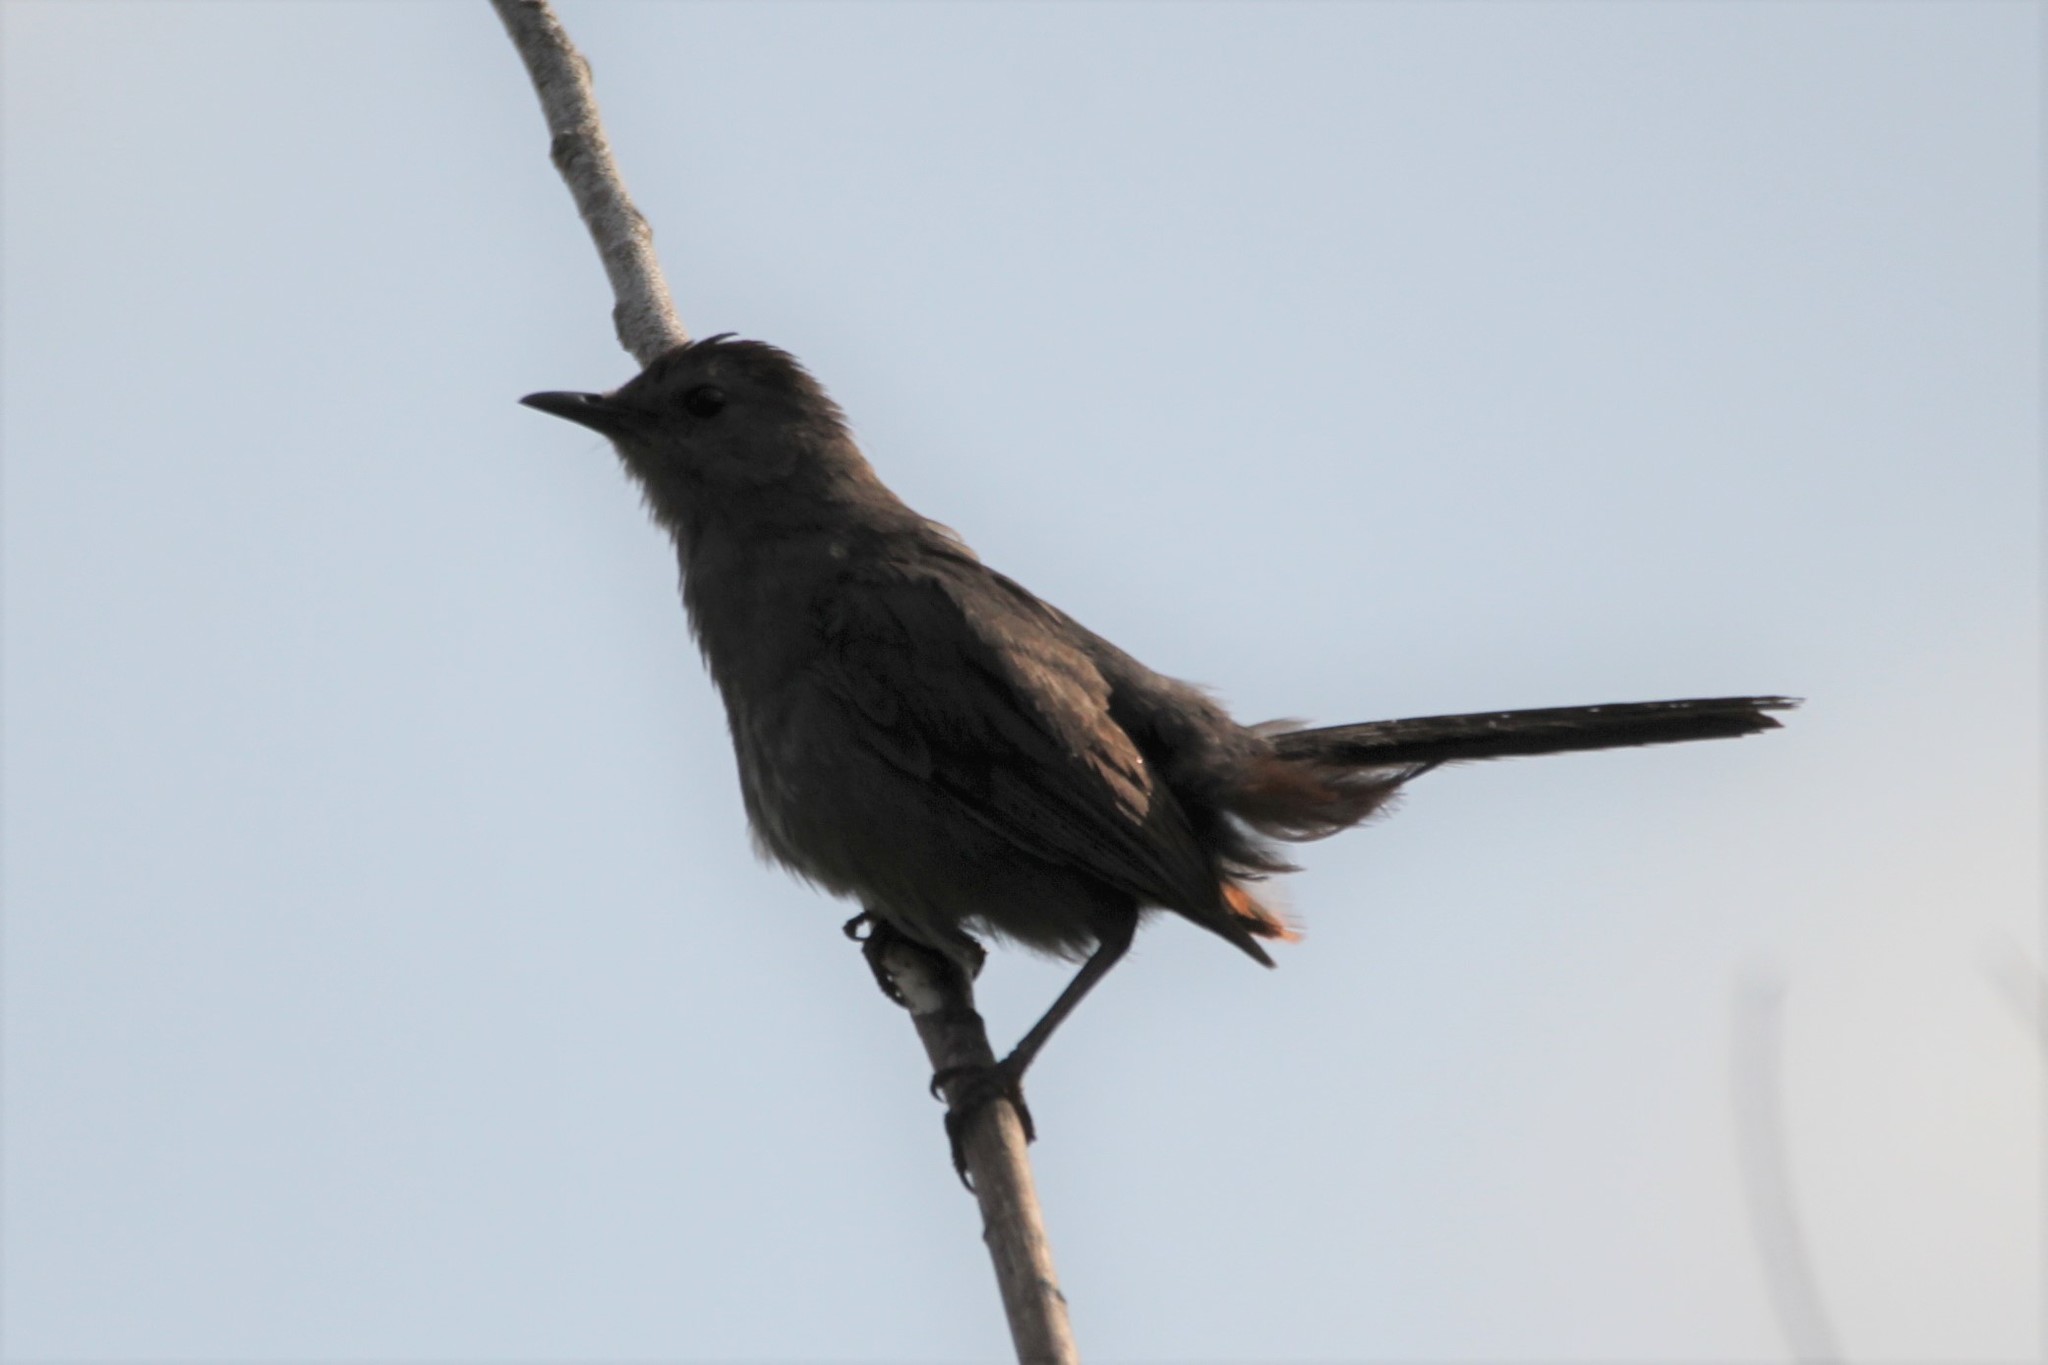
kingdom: Animalia
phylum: Chordata
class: Aves
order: Passeriformes
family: Mimidae
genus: Dumetella
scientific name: Dumetella carolinensis
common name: Gray catbird
